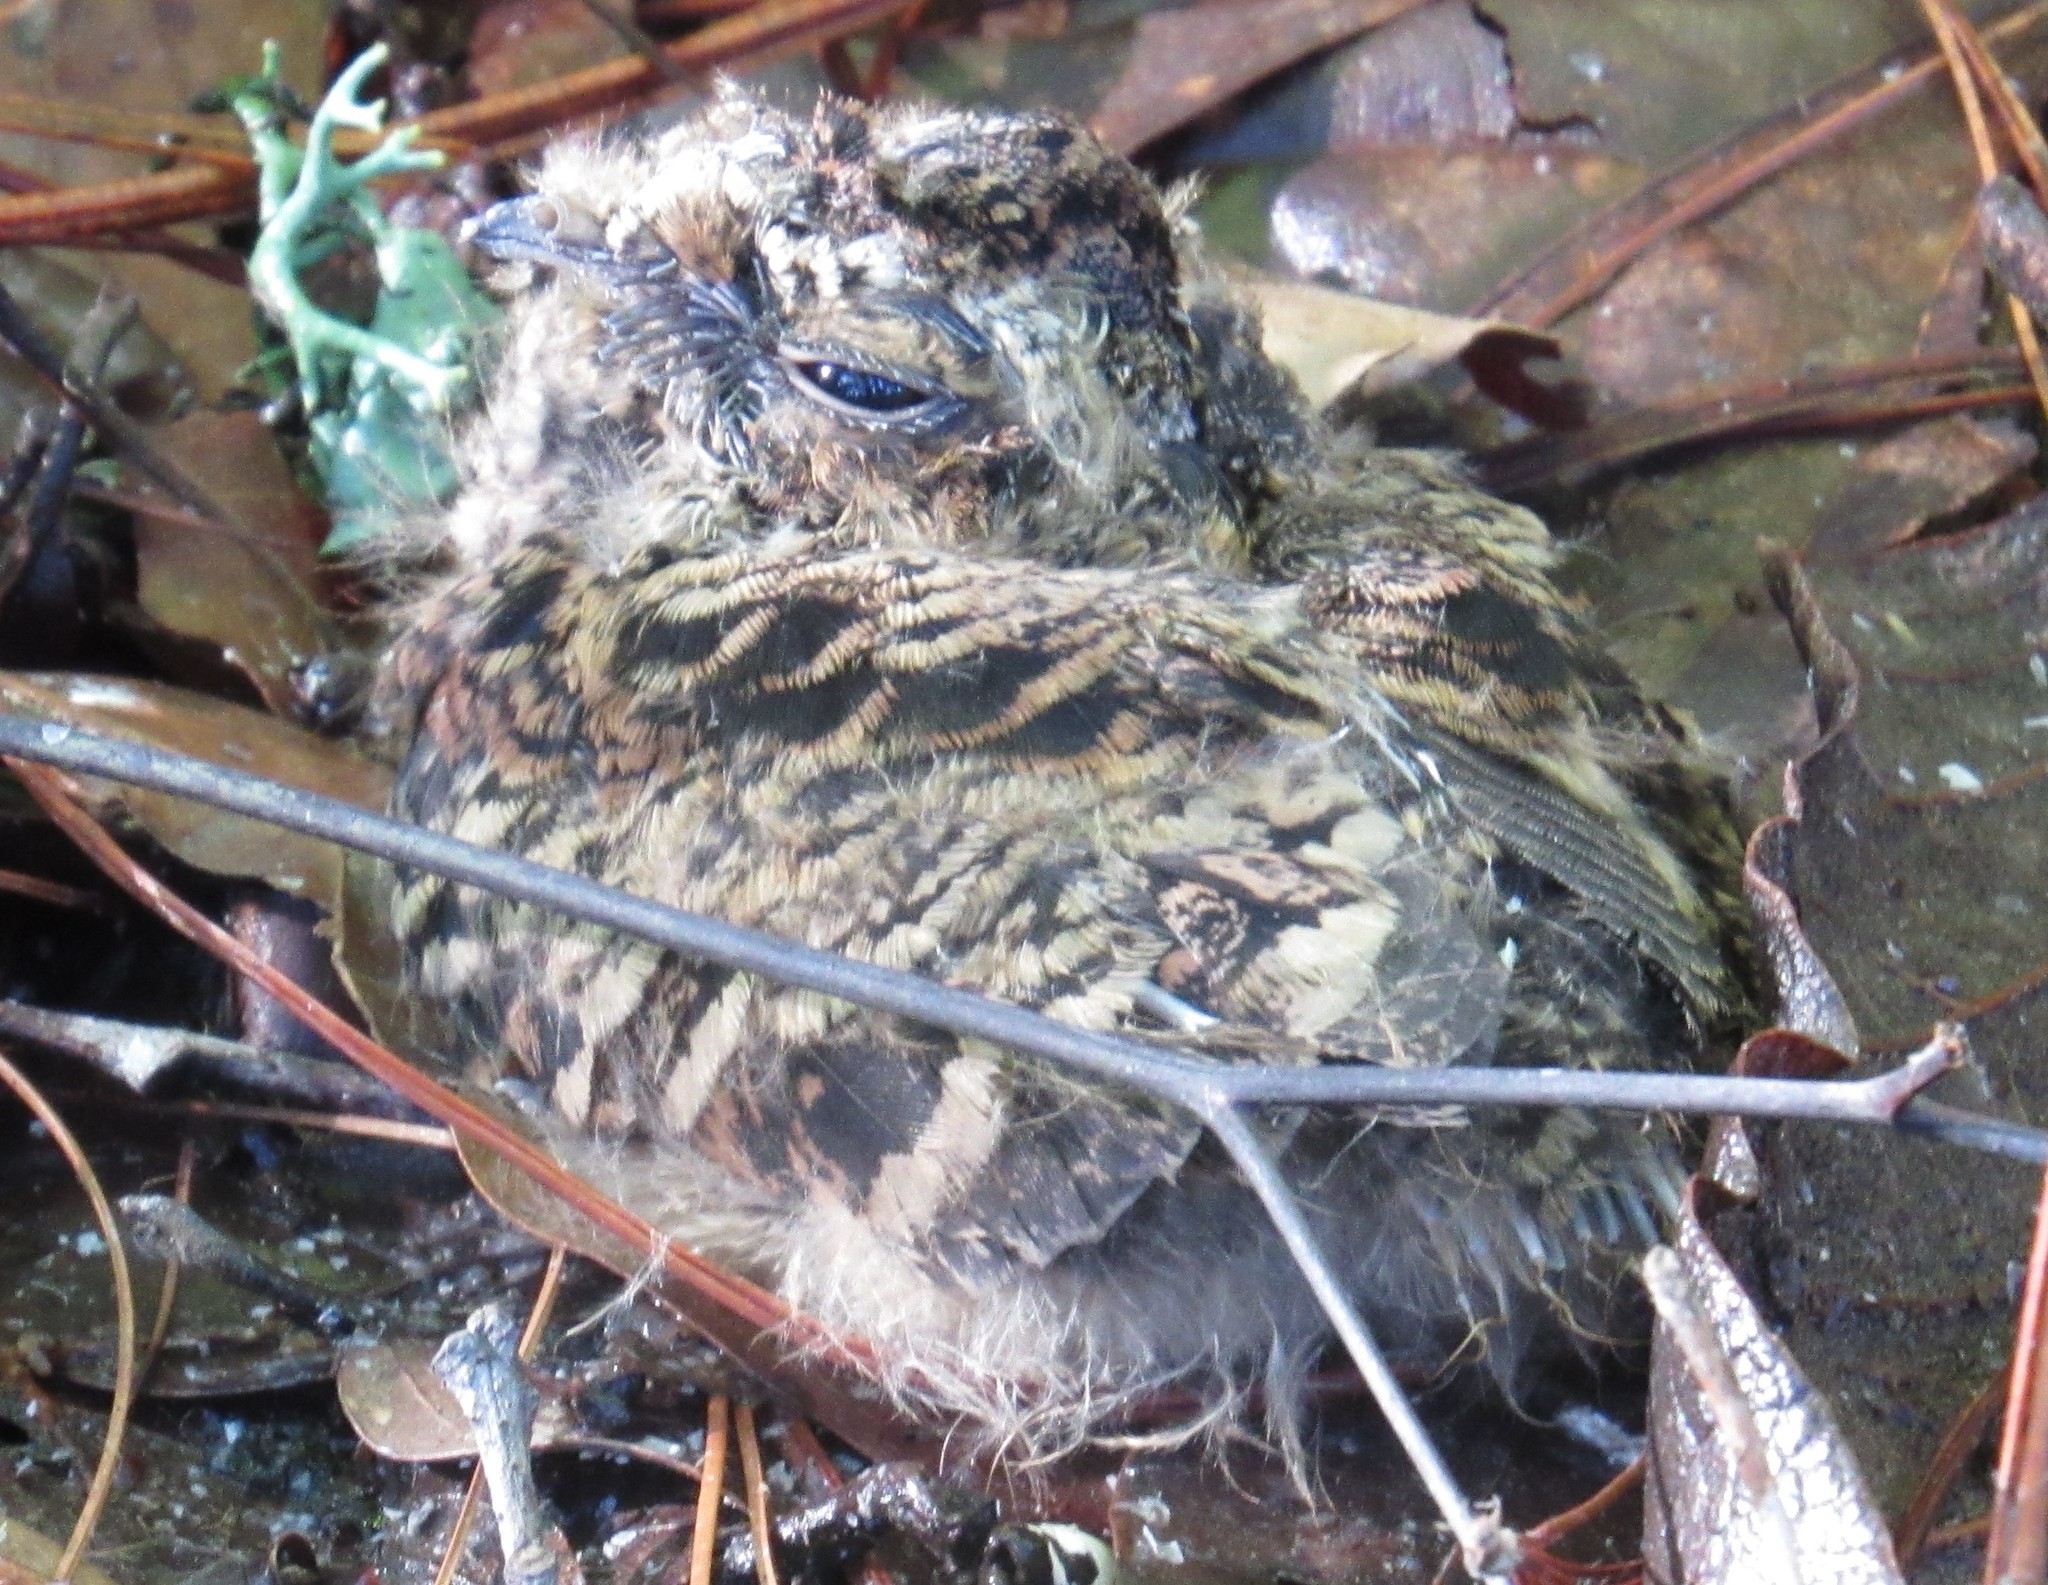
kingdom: Animalia
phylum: Chordata
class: Aves
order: Caprimulgiformes
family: Caprimulgidae
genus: Antrostomus
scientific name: Antrostomus arizonae
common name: Mexican whip-poor-will
